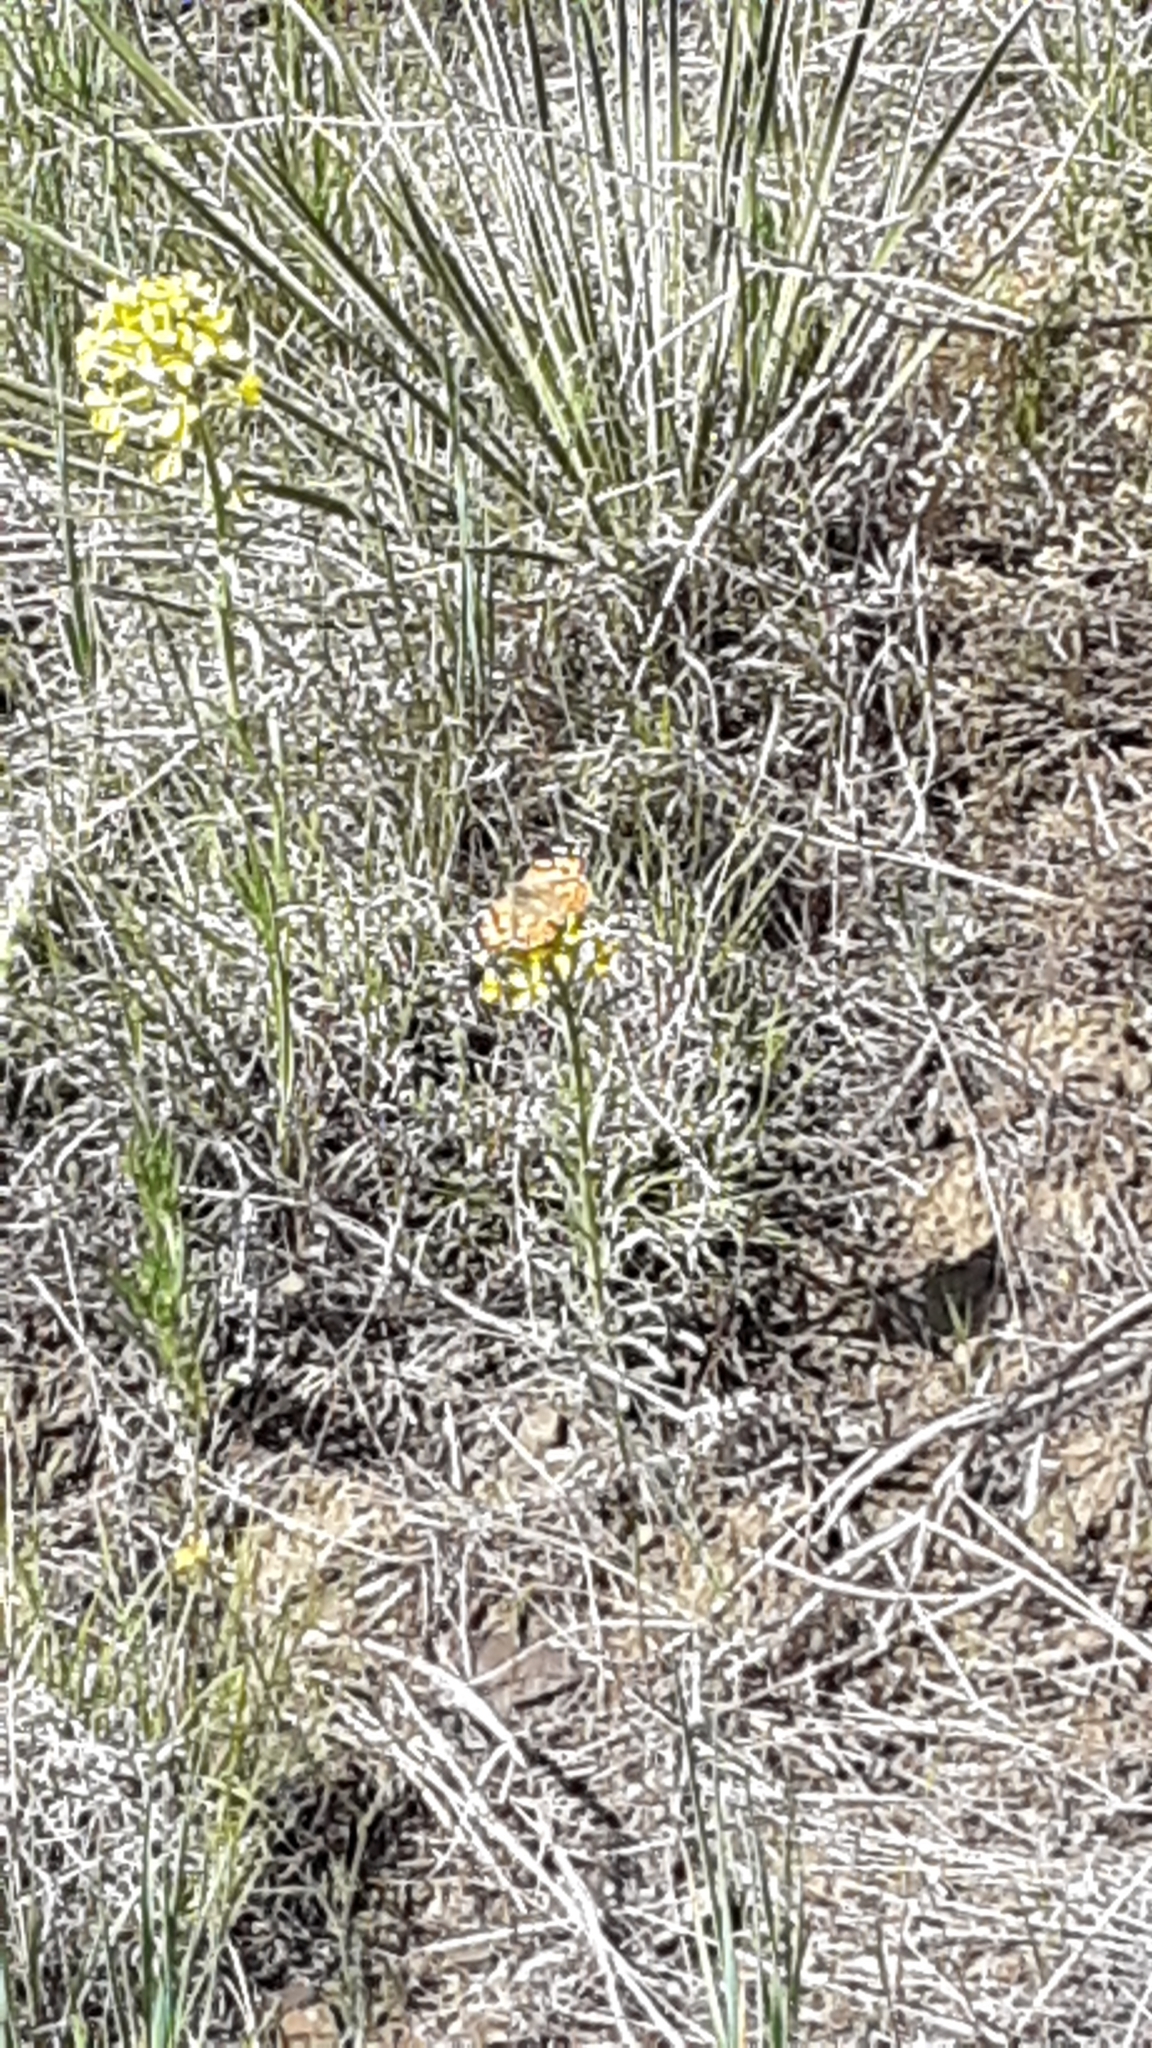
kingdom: Animalia
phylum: Arthropoda
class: Insecta
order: Lepidoptera
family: Nymphalidae
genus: Vanessa
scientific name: Vanessa cardui
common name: Painted lady
